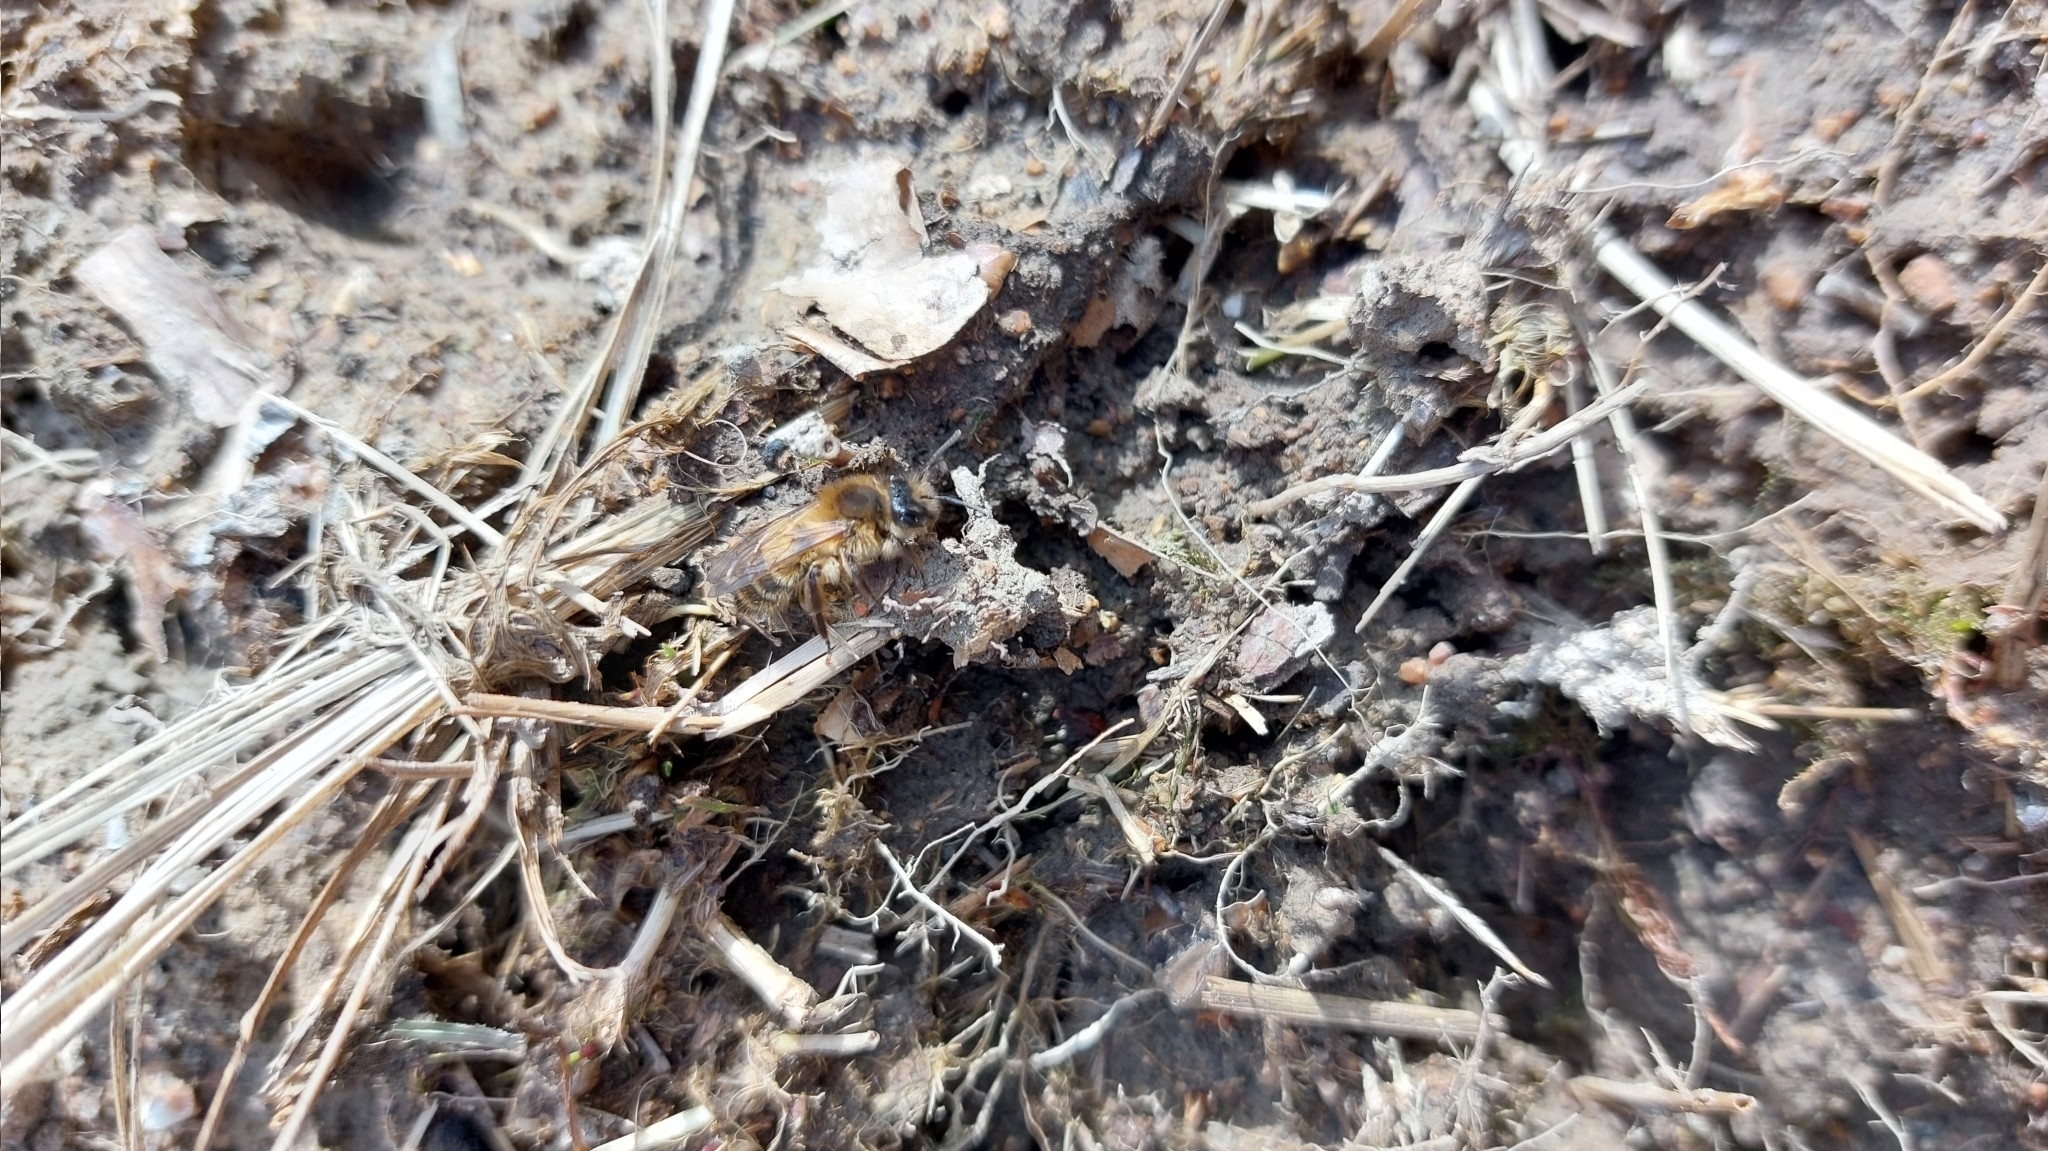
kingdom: Animalia
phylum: Arthropoda
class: Insecta
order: Hymenoptera
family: Colletidae
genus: Colletes
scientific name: Colletes cunicularius
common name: Early colletes
